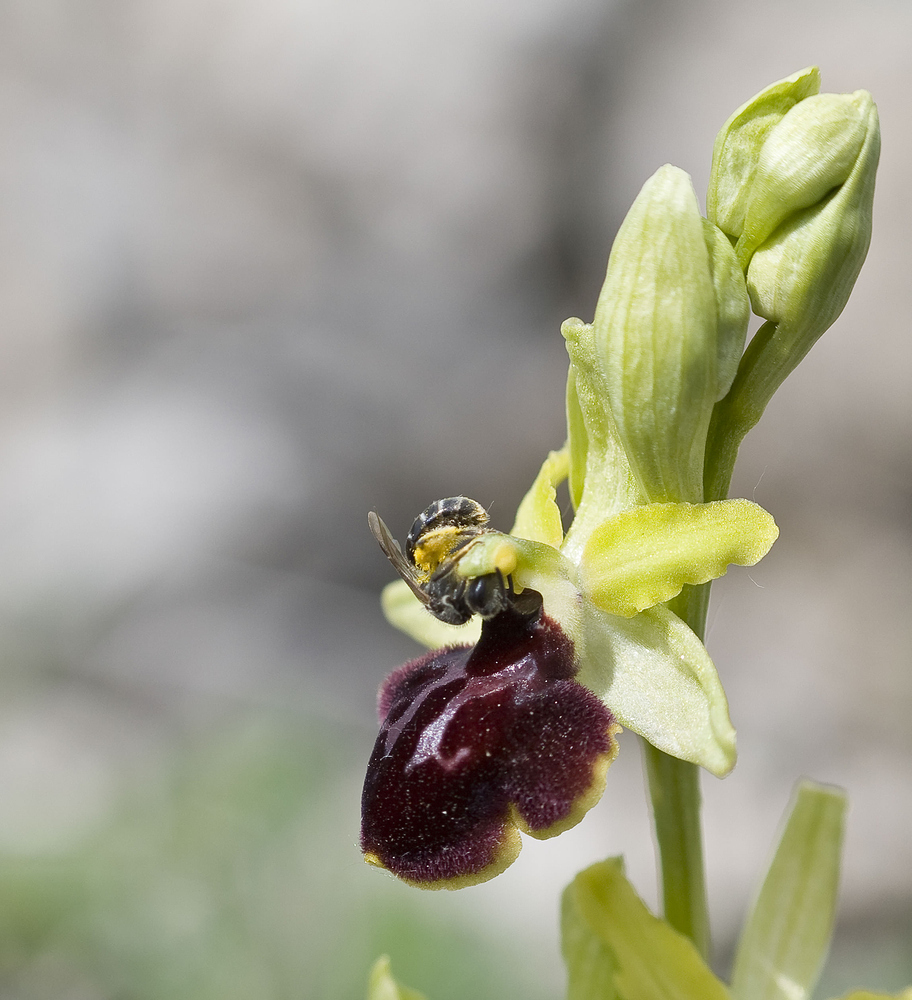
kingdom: Plantae
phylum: Tracheophyta
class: Liliopsida
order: Asparagales
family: Orchidaceae
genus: Ophrys
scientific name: Ophrys sphegodes
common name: Early spider-orchid
